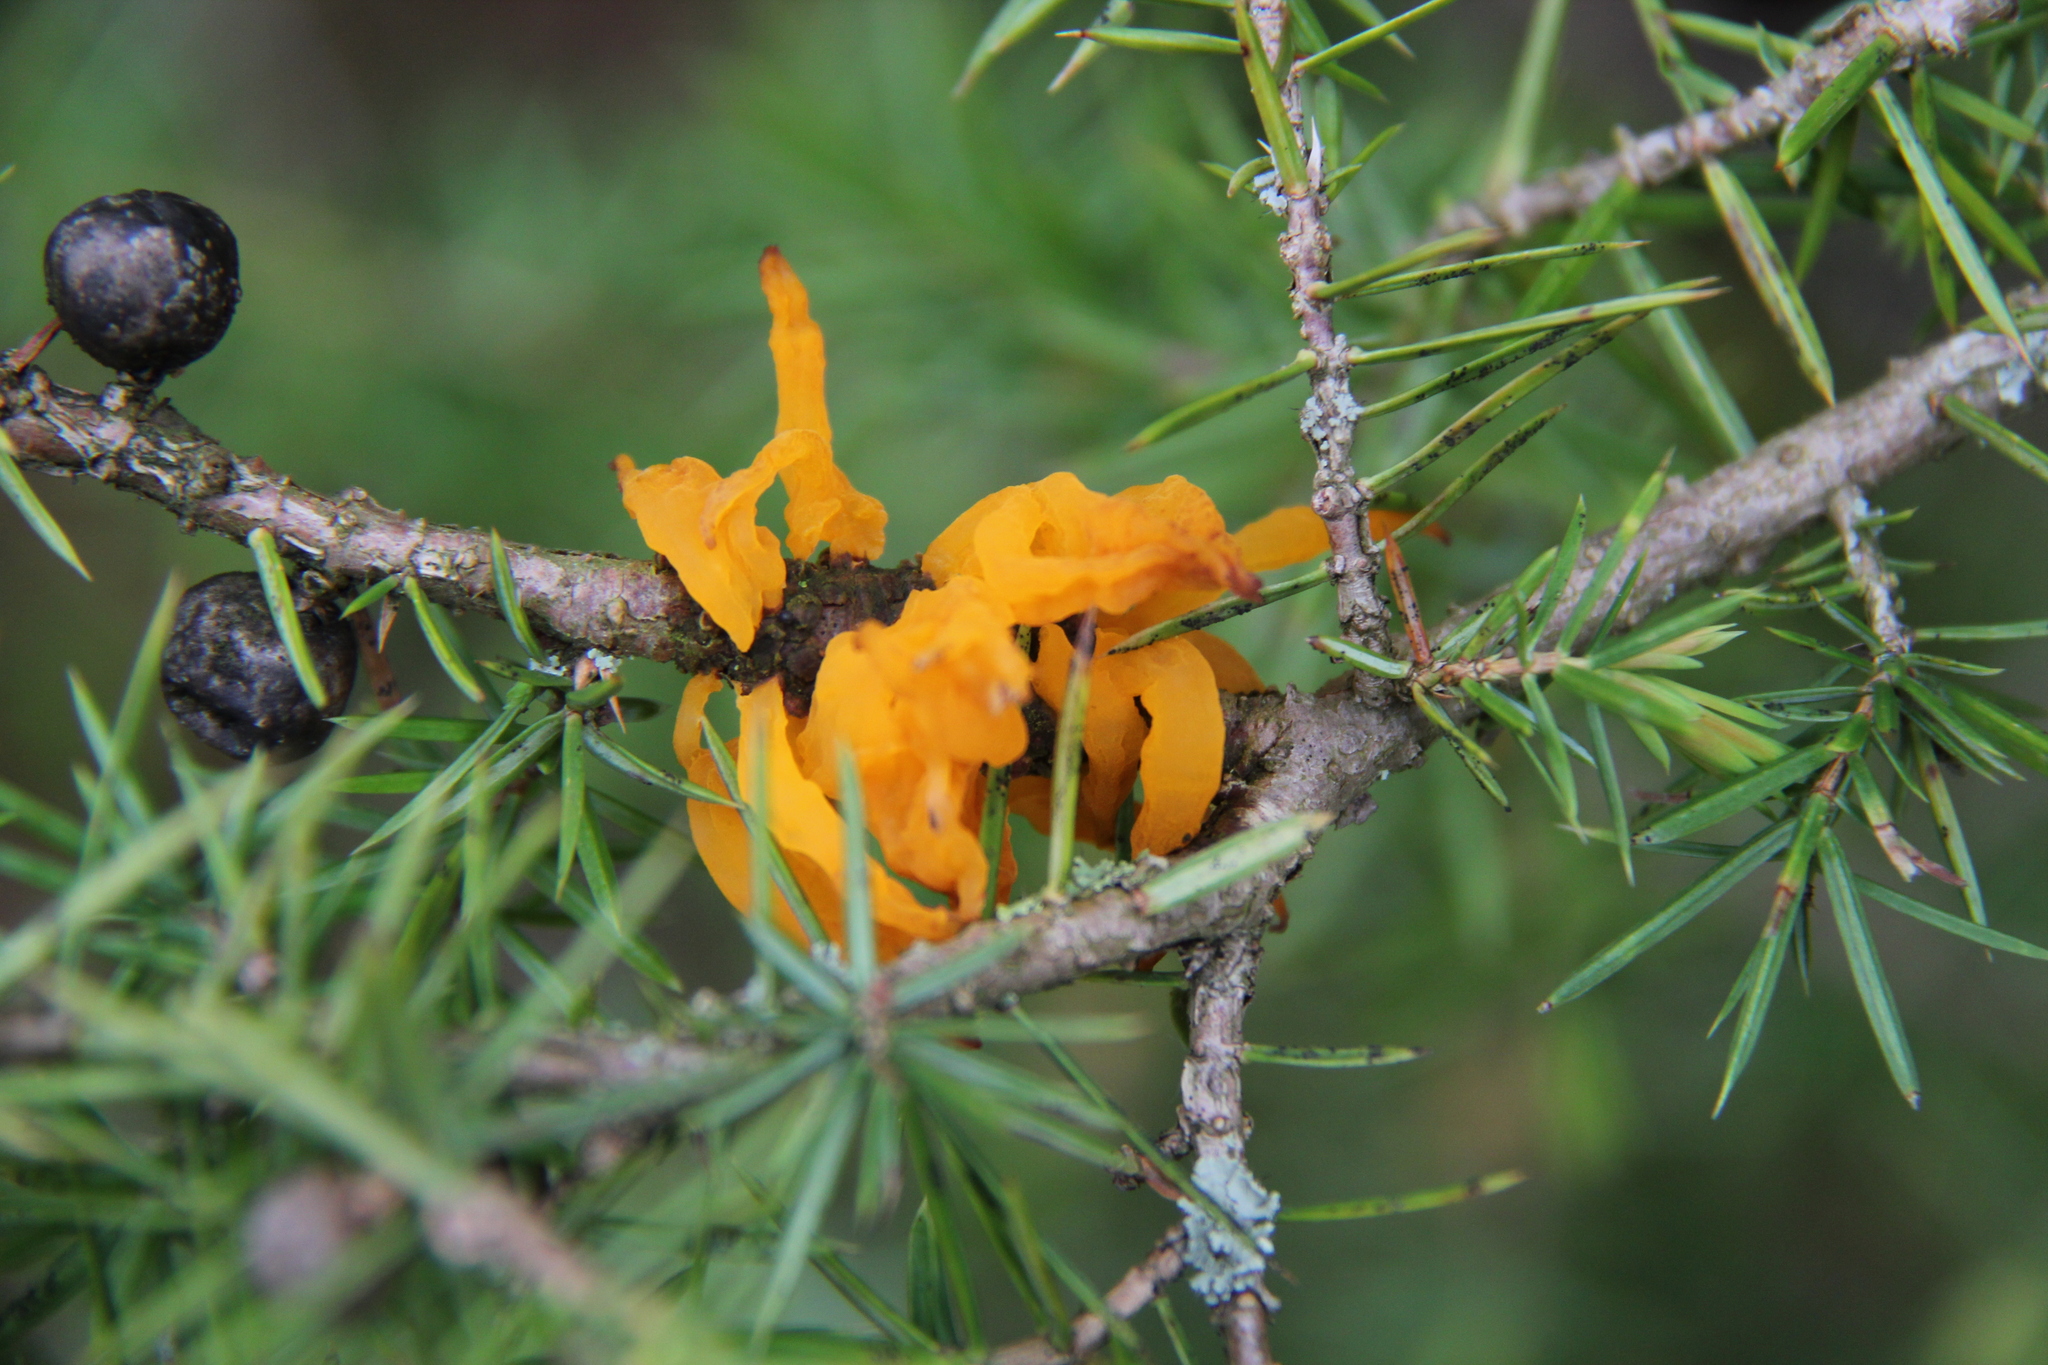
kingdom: Fungi
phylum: Basidiomycota
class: Pucciniomycetes
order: Pucciniales
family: Gymnosporangiaceae
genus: Gymnosporangium
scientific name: Gymnosporangium clavariiforme
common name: Tongues of fire
